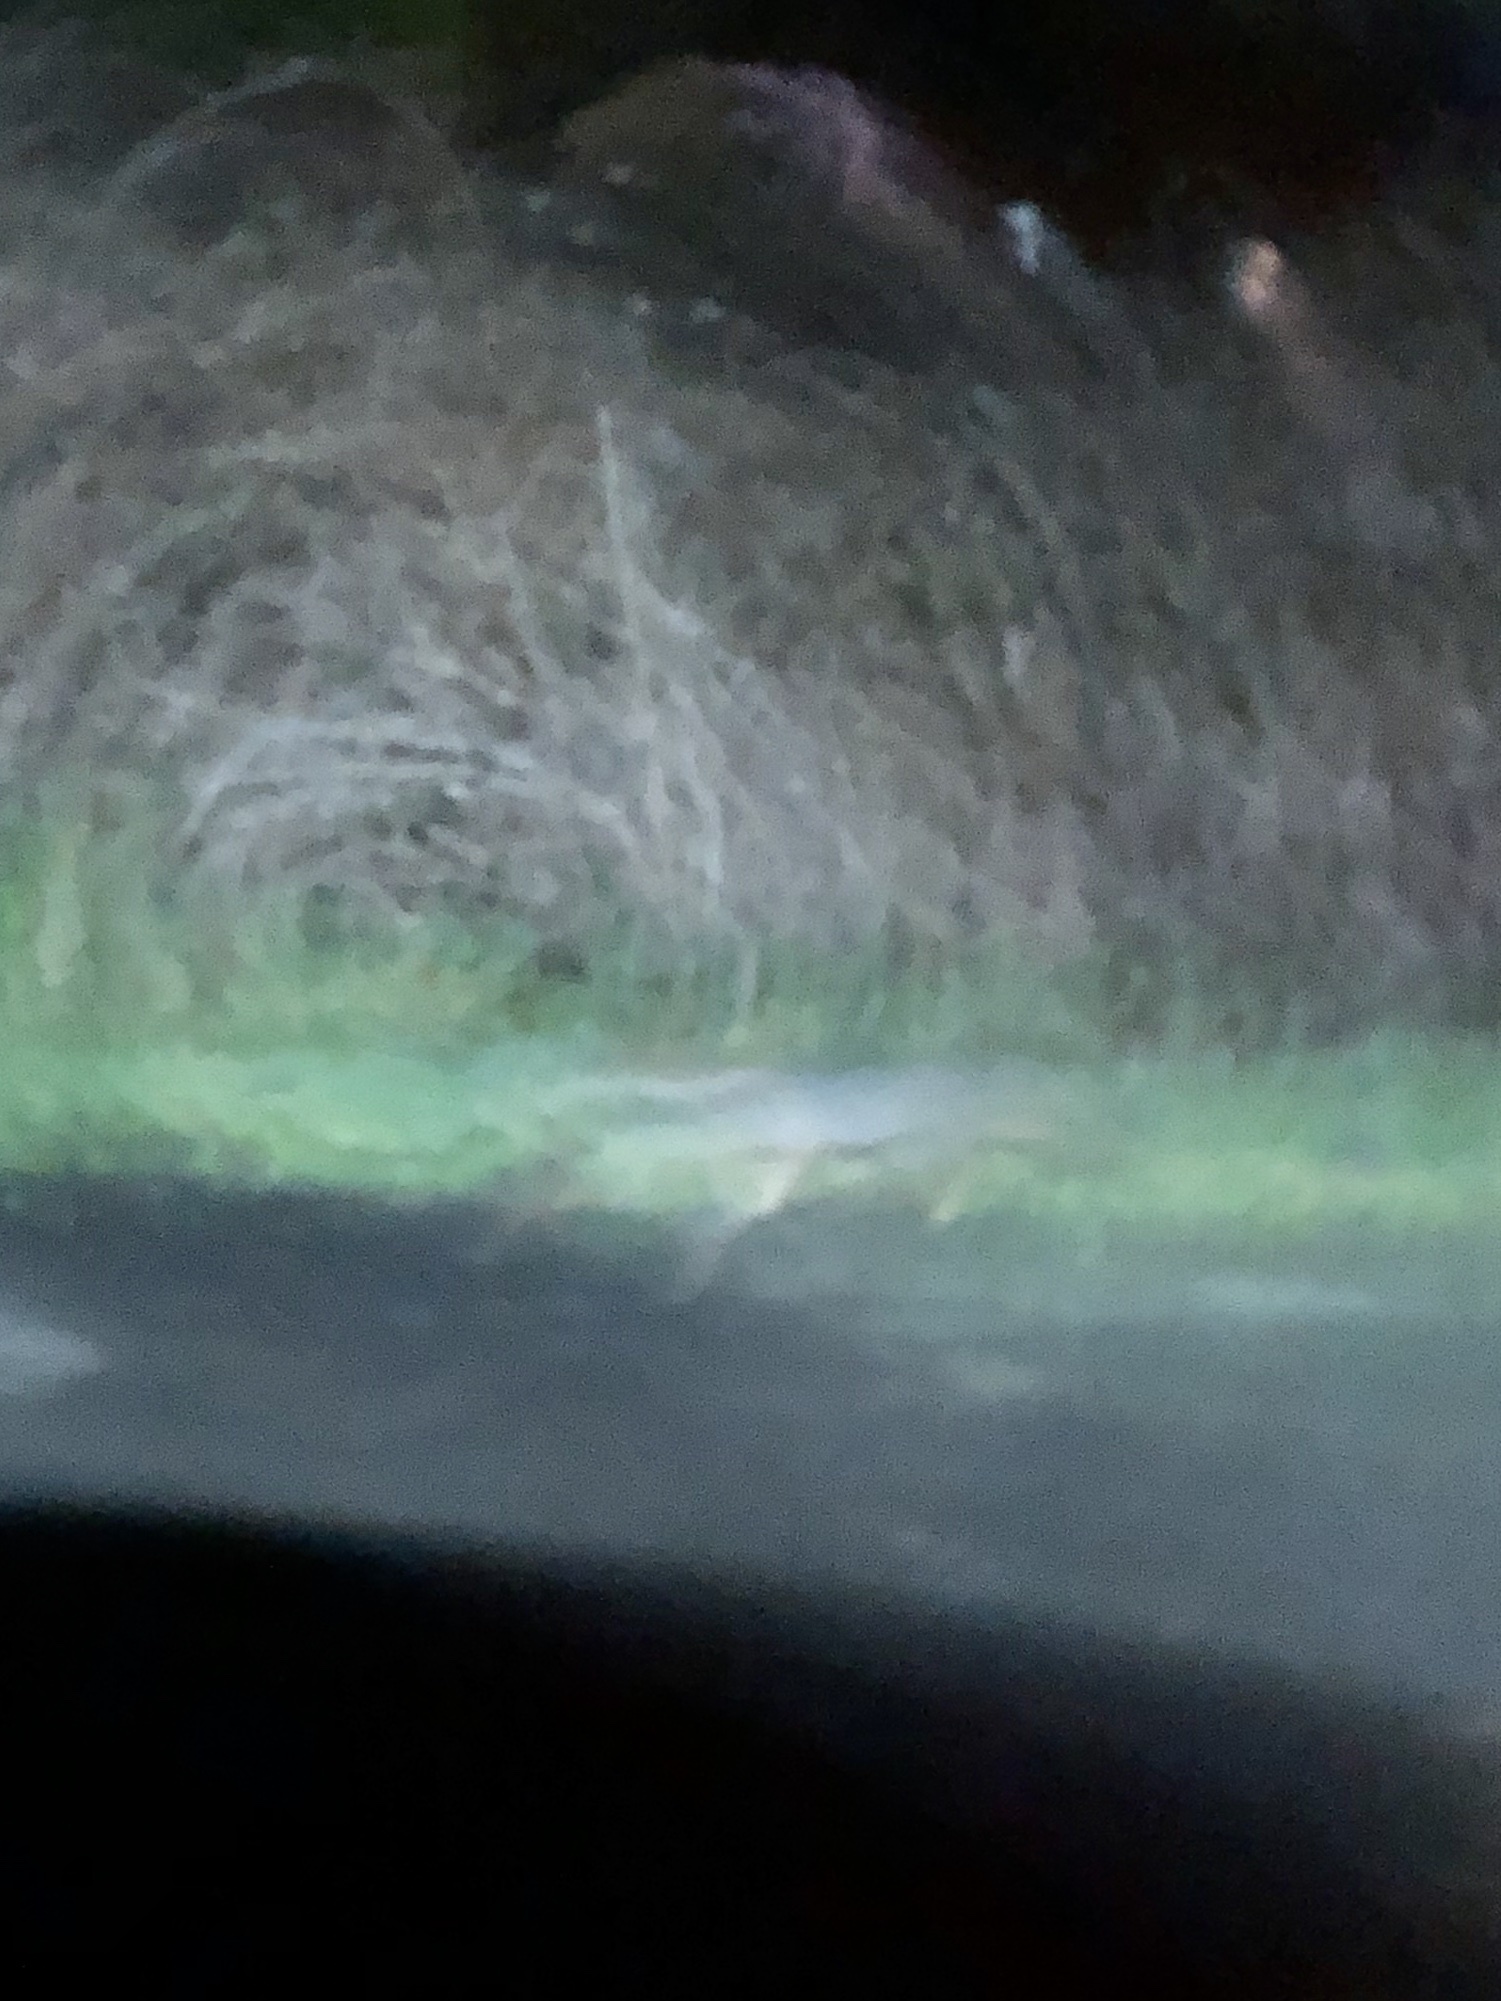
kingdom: Animalia
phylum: Chordata
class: Mammalia
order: Carnivora
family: Canidae
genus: Urocyon
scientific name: Urocyon cinereoargenteus
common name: Gray fox
